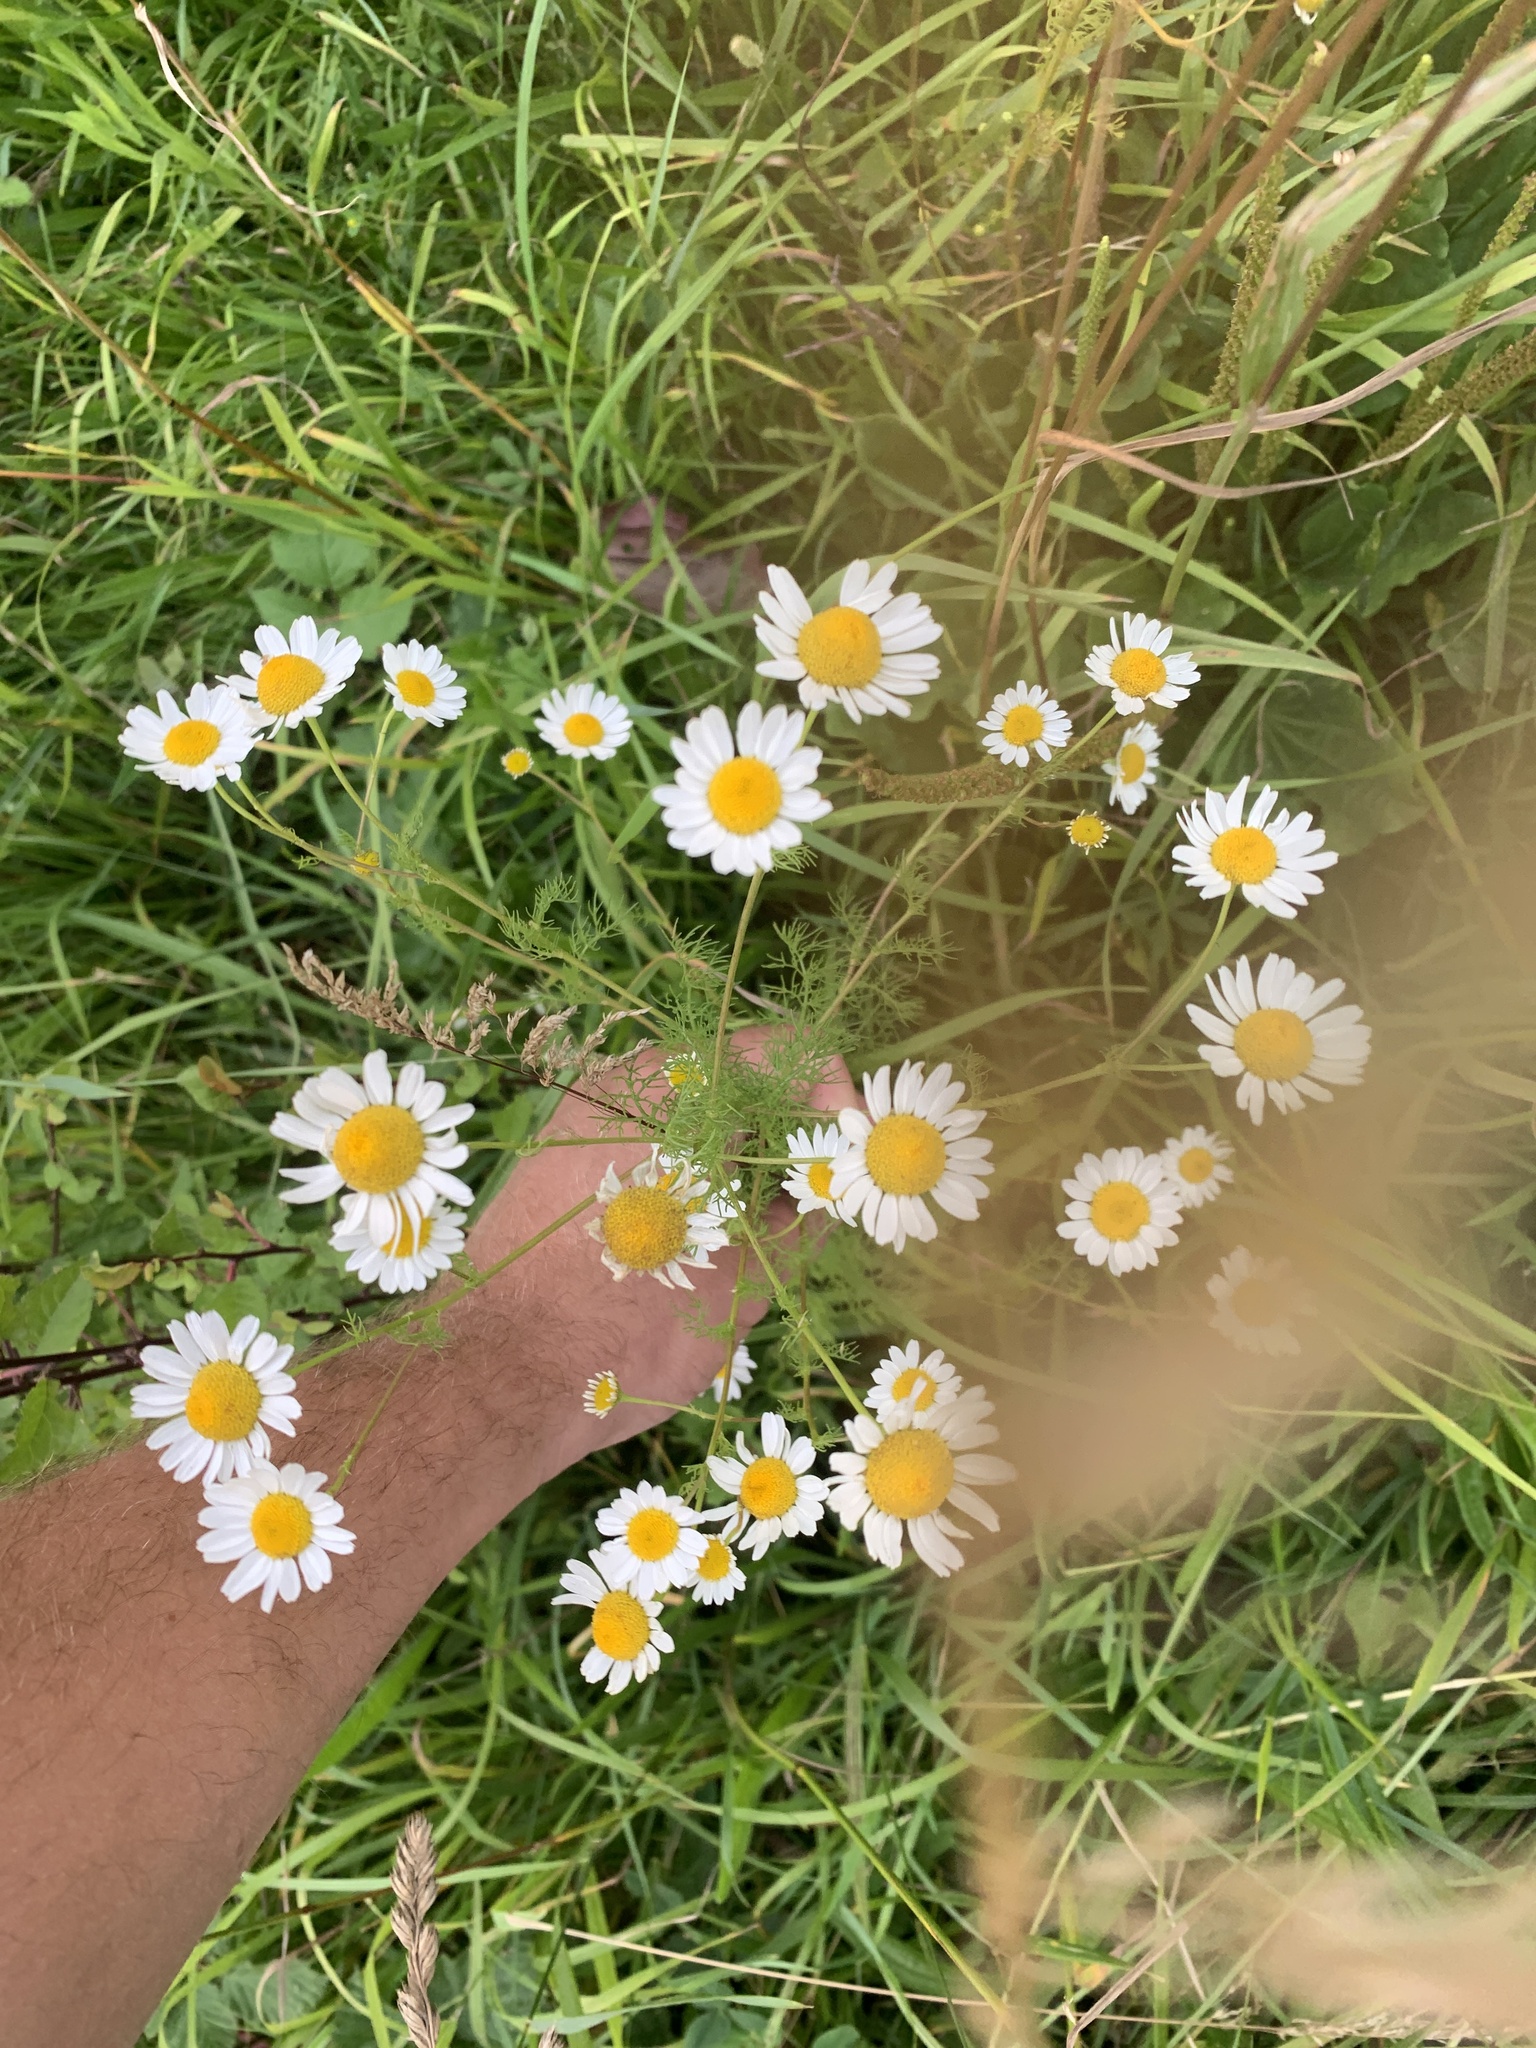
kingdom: Plantae
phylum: Tracheophyta
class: Magnoliopsida
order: Asterales
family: Asteraceae
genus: Tripleurospermum
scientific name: Tripleurospermum inodorum
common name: Scentless mayweed
